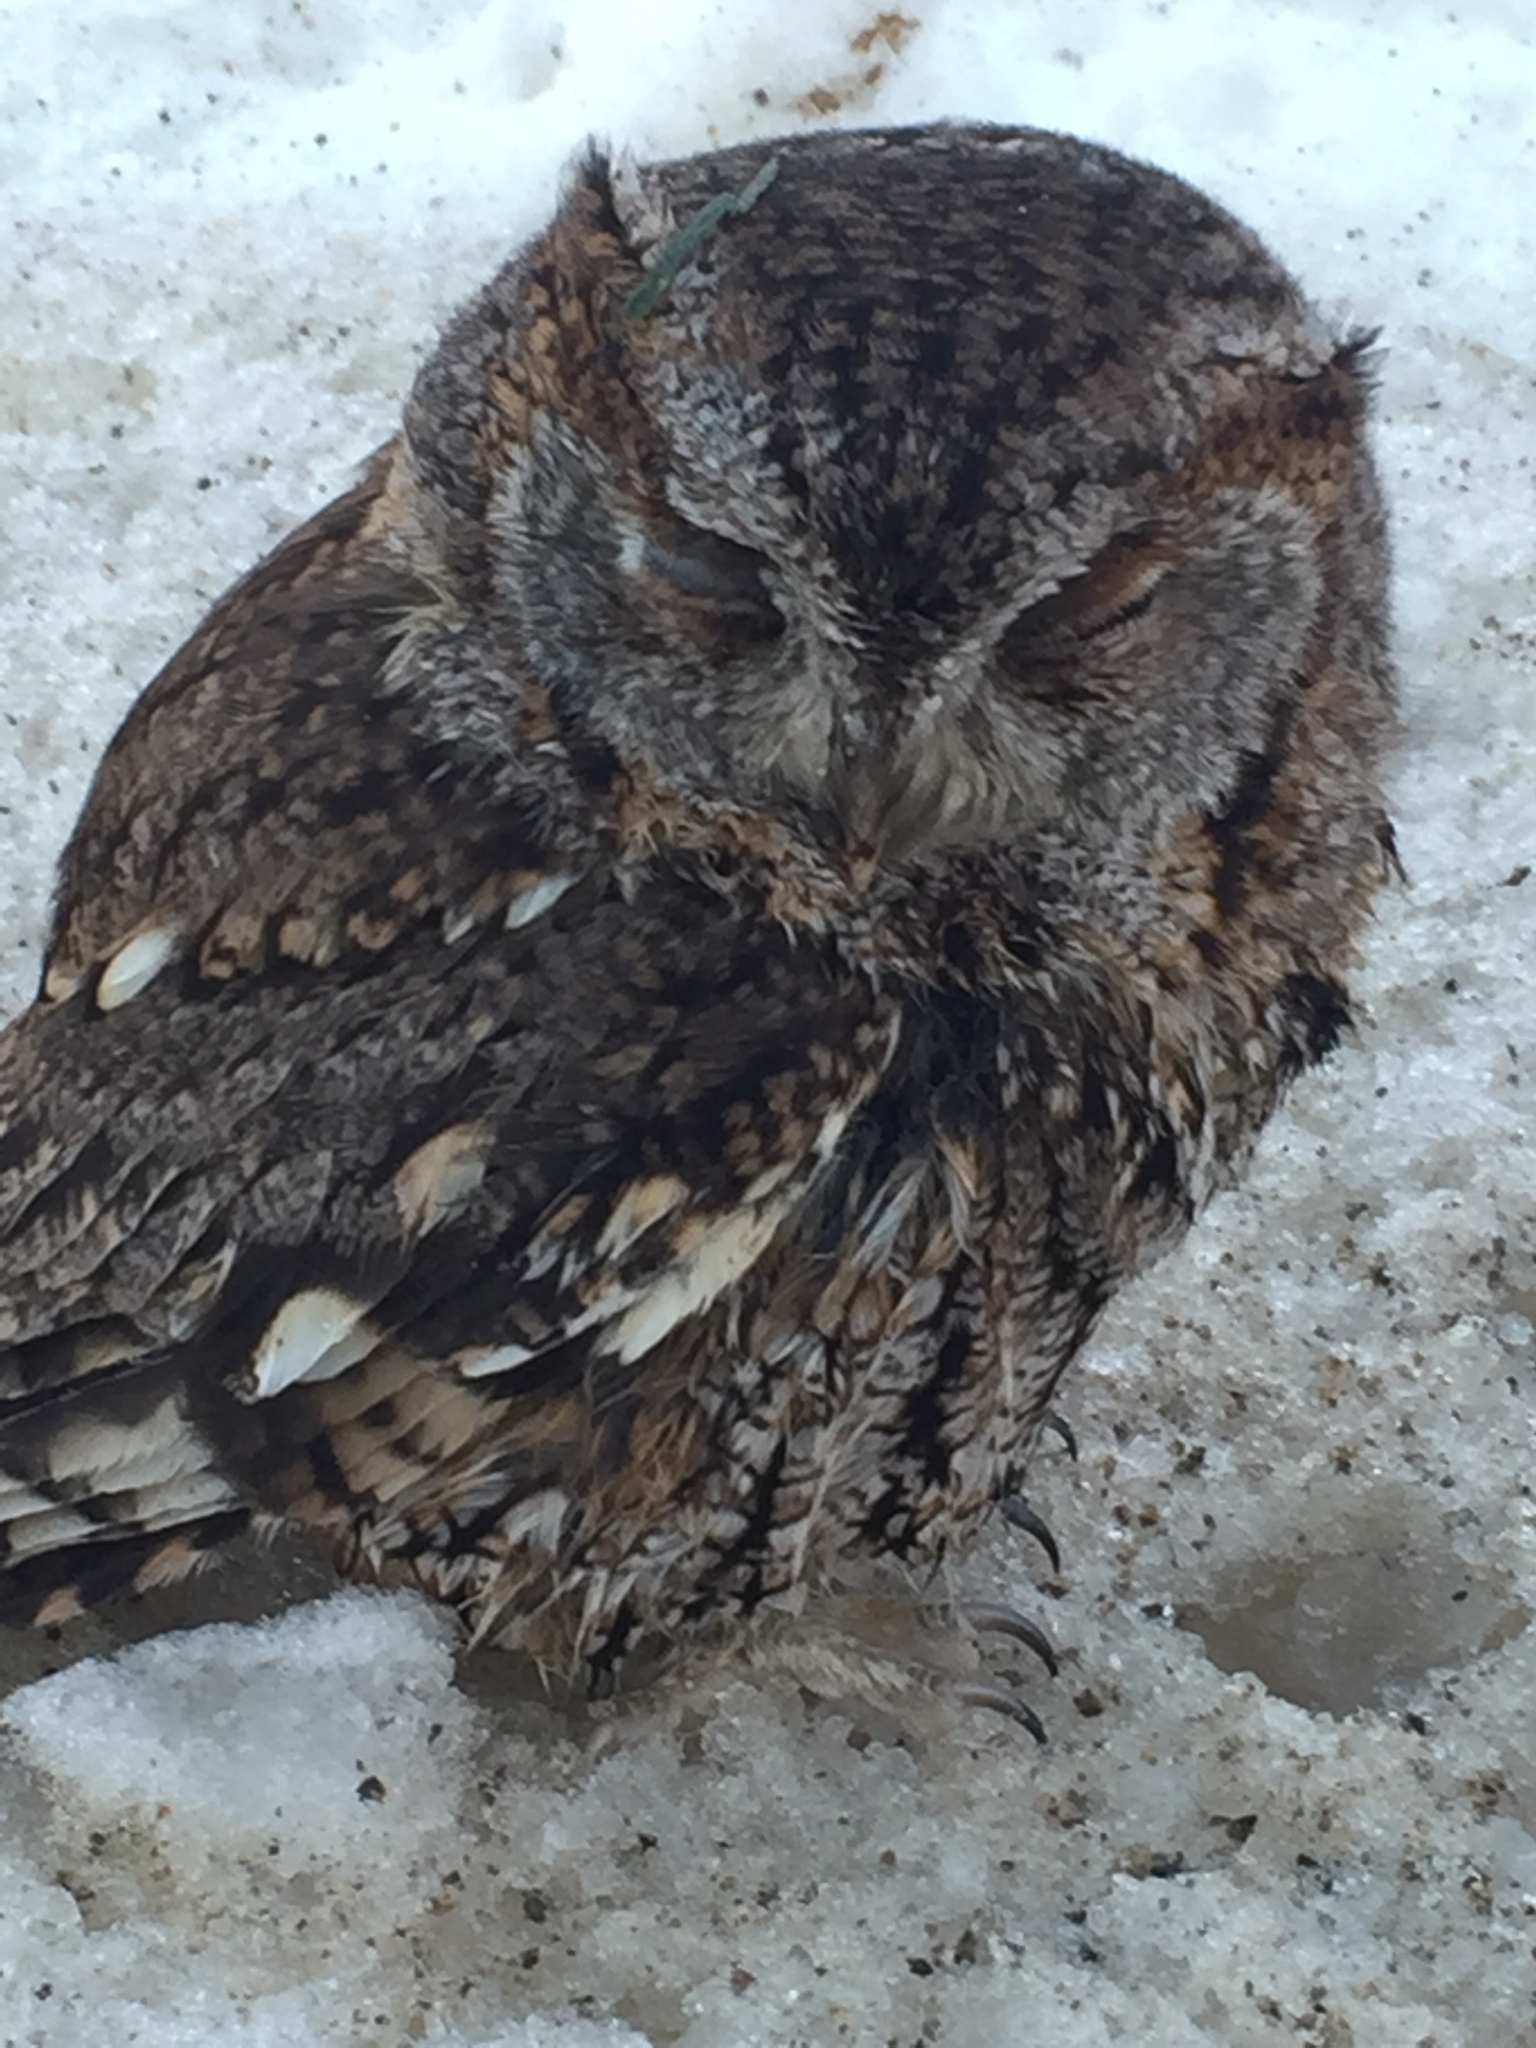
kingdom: Animalia
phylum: Chordata
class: Aves
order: Strigiformes
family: Strigidae
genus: Megascops
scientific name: Megascops asio
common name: Eastern screech-owl
